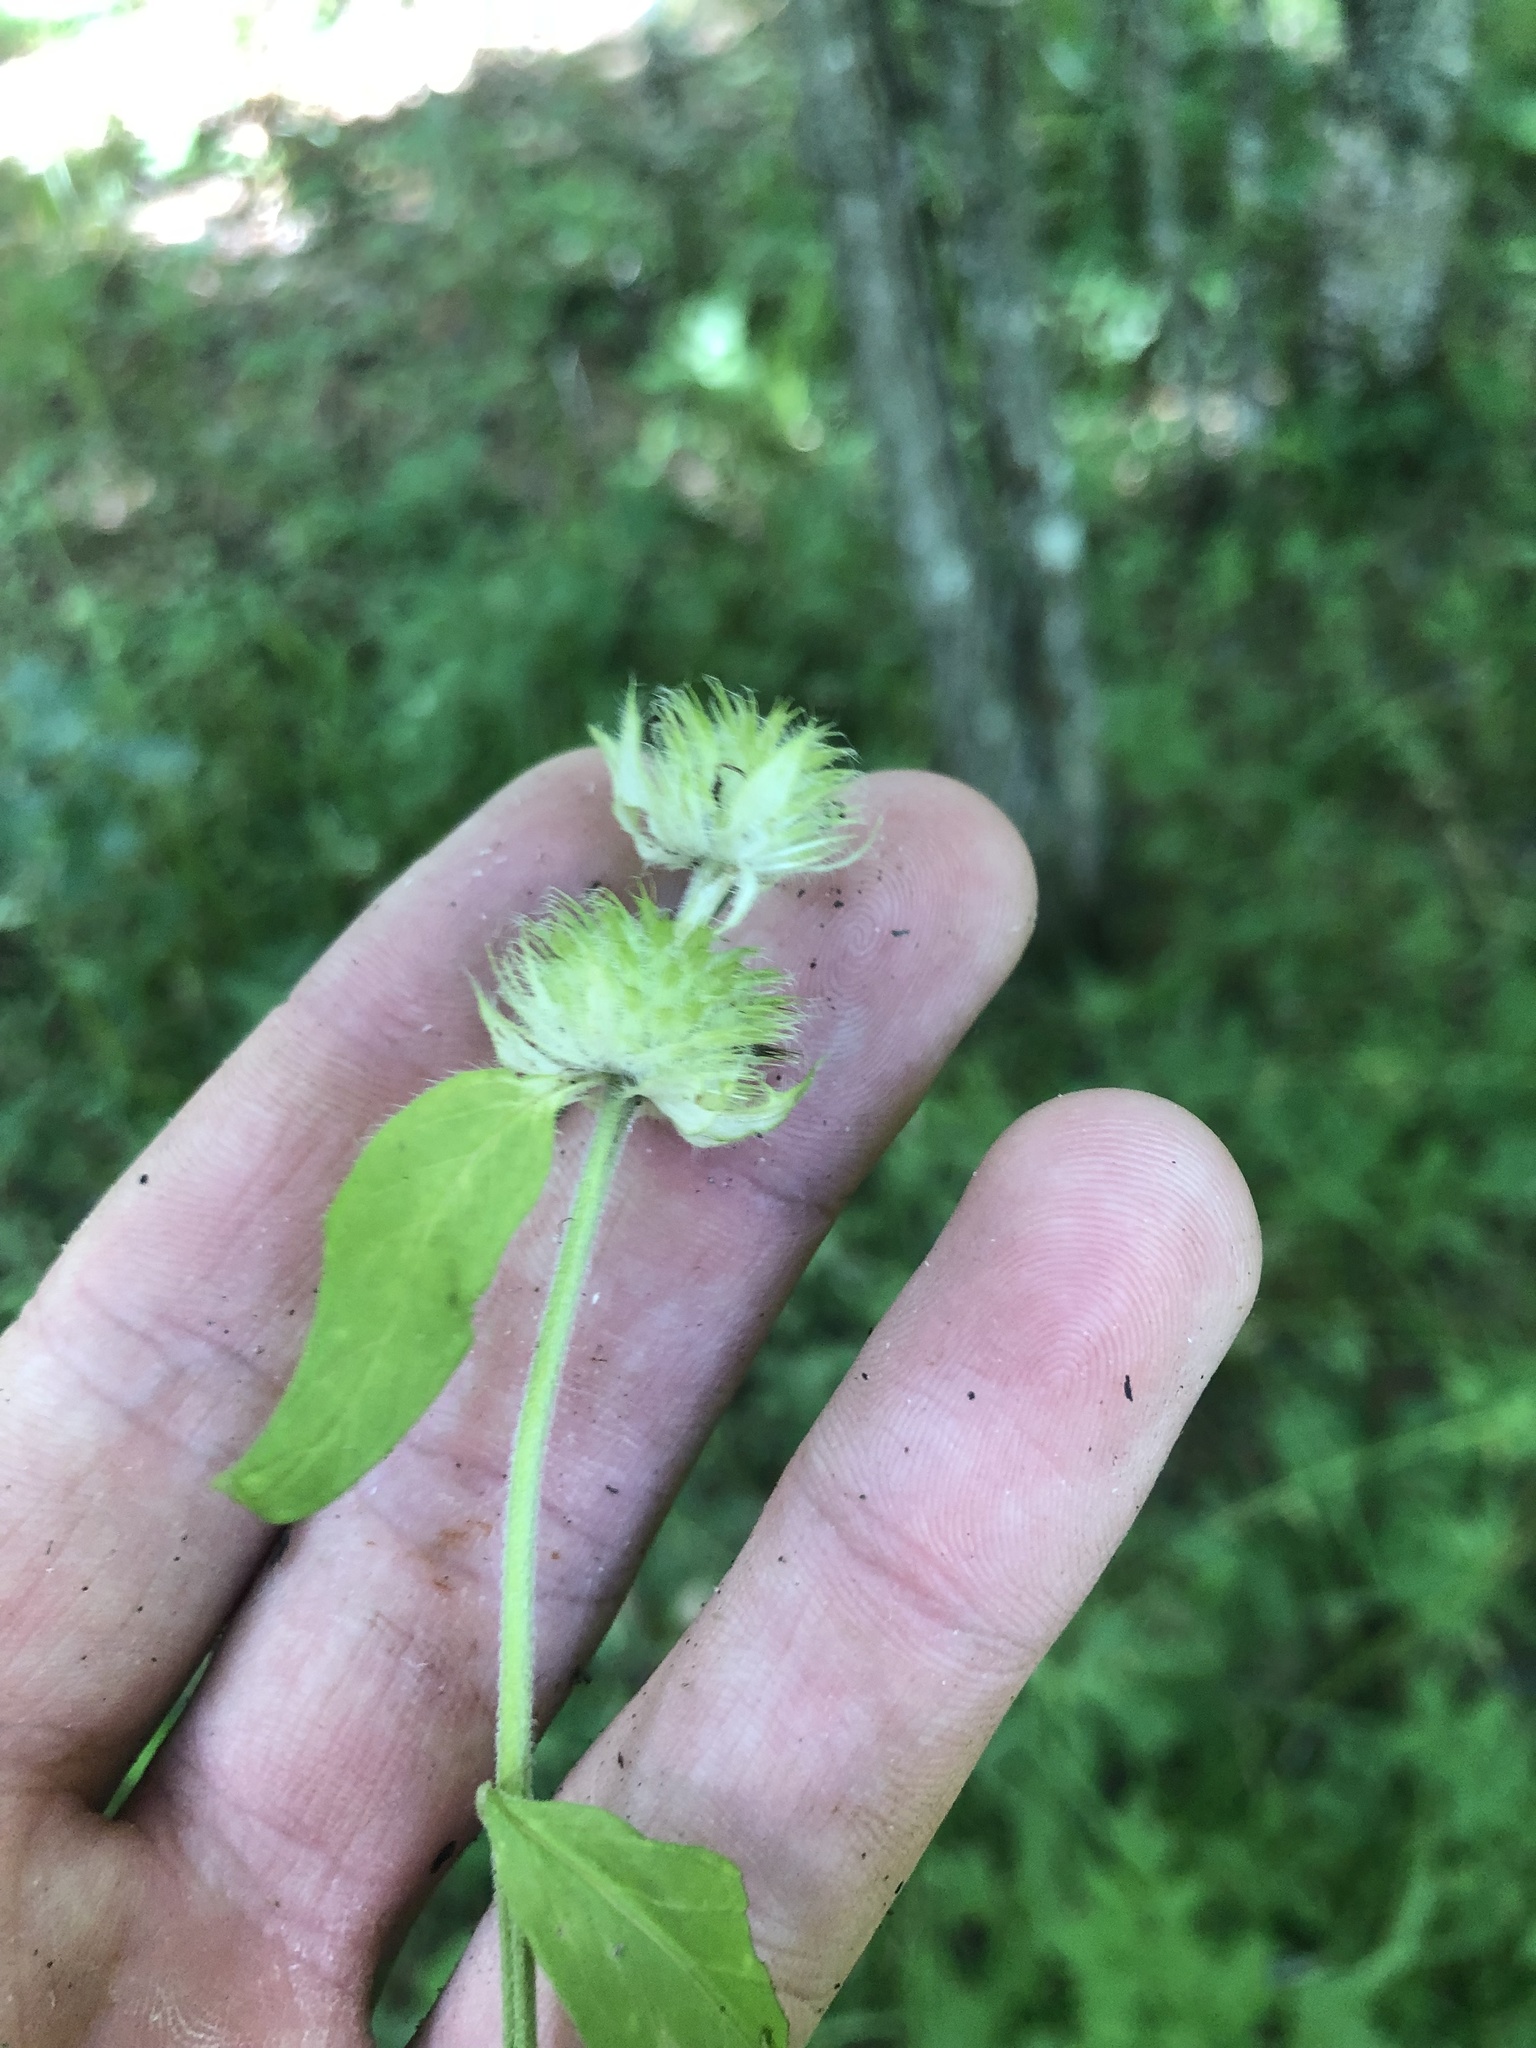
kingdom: Plantae
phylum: Tracheophyta
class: Magnoliopsida
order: Lamiales
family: Lamiaceae
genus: Blephilia
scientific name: Blephilia ciliata
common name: Downy blephilia
